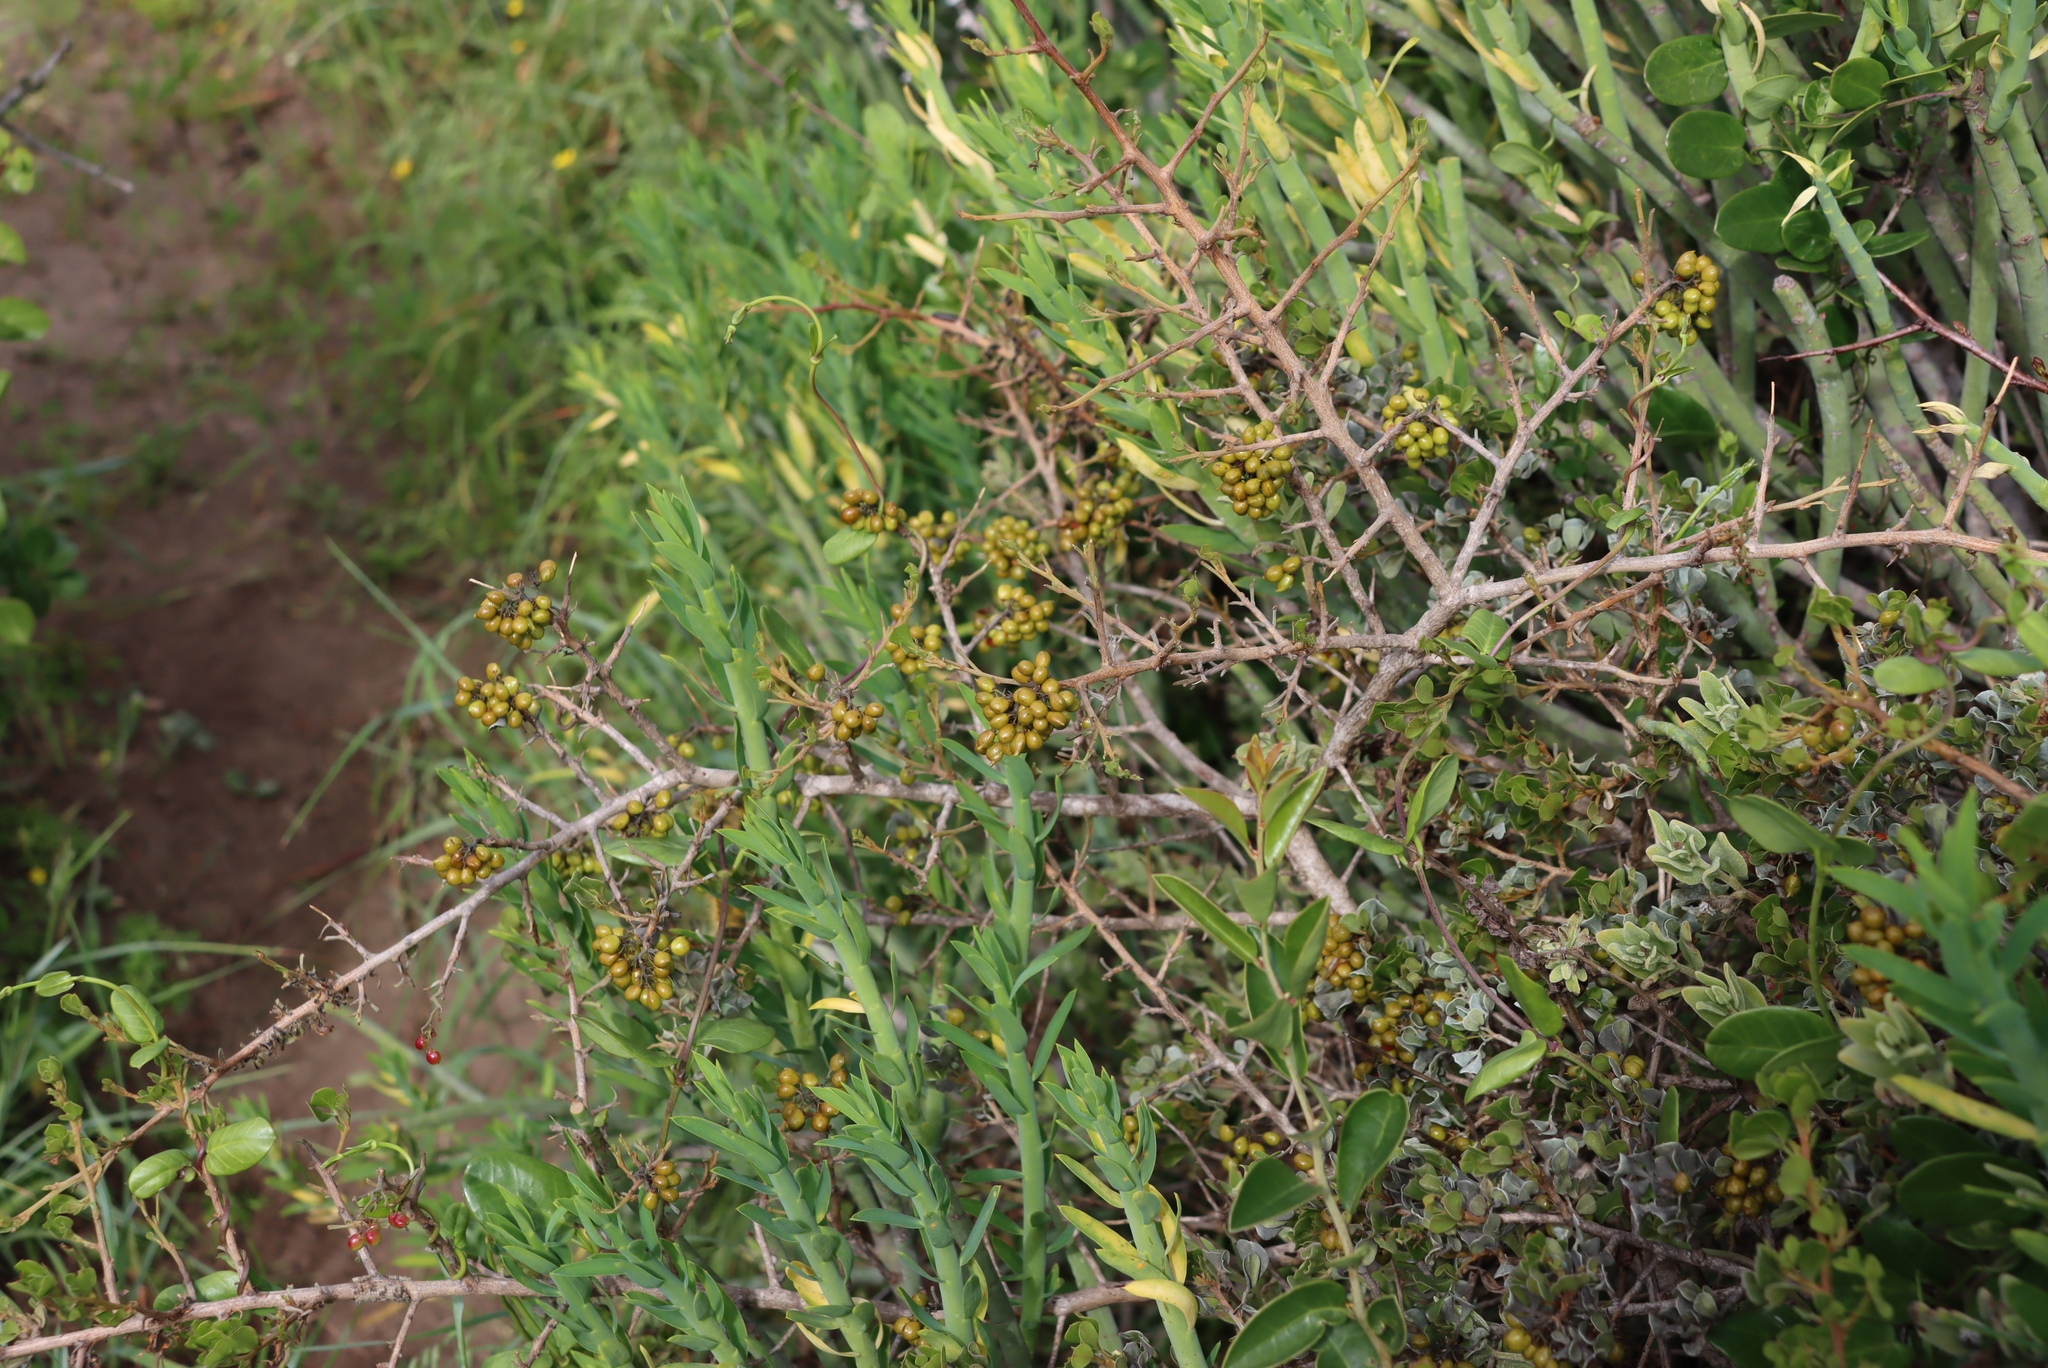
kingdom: Plantae
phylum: Tracheophyta
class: Magnoliopsida
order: Sapindales
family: Anacardiaceae
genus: Searsia
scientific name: Searsia glauca
